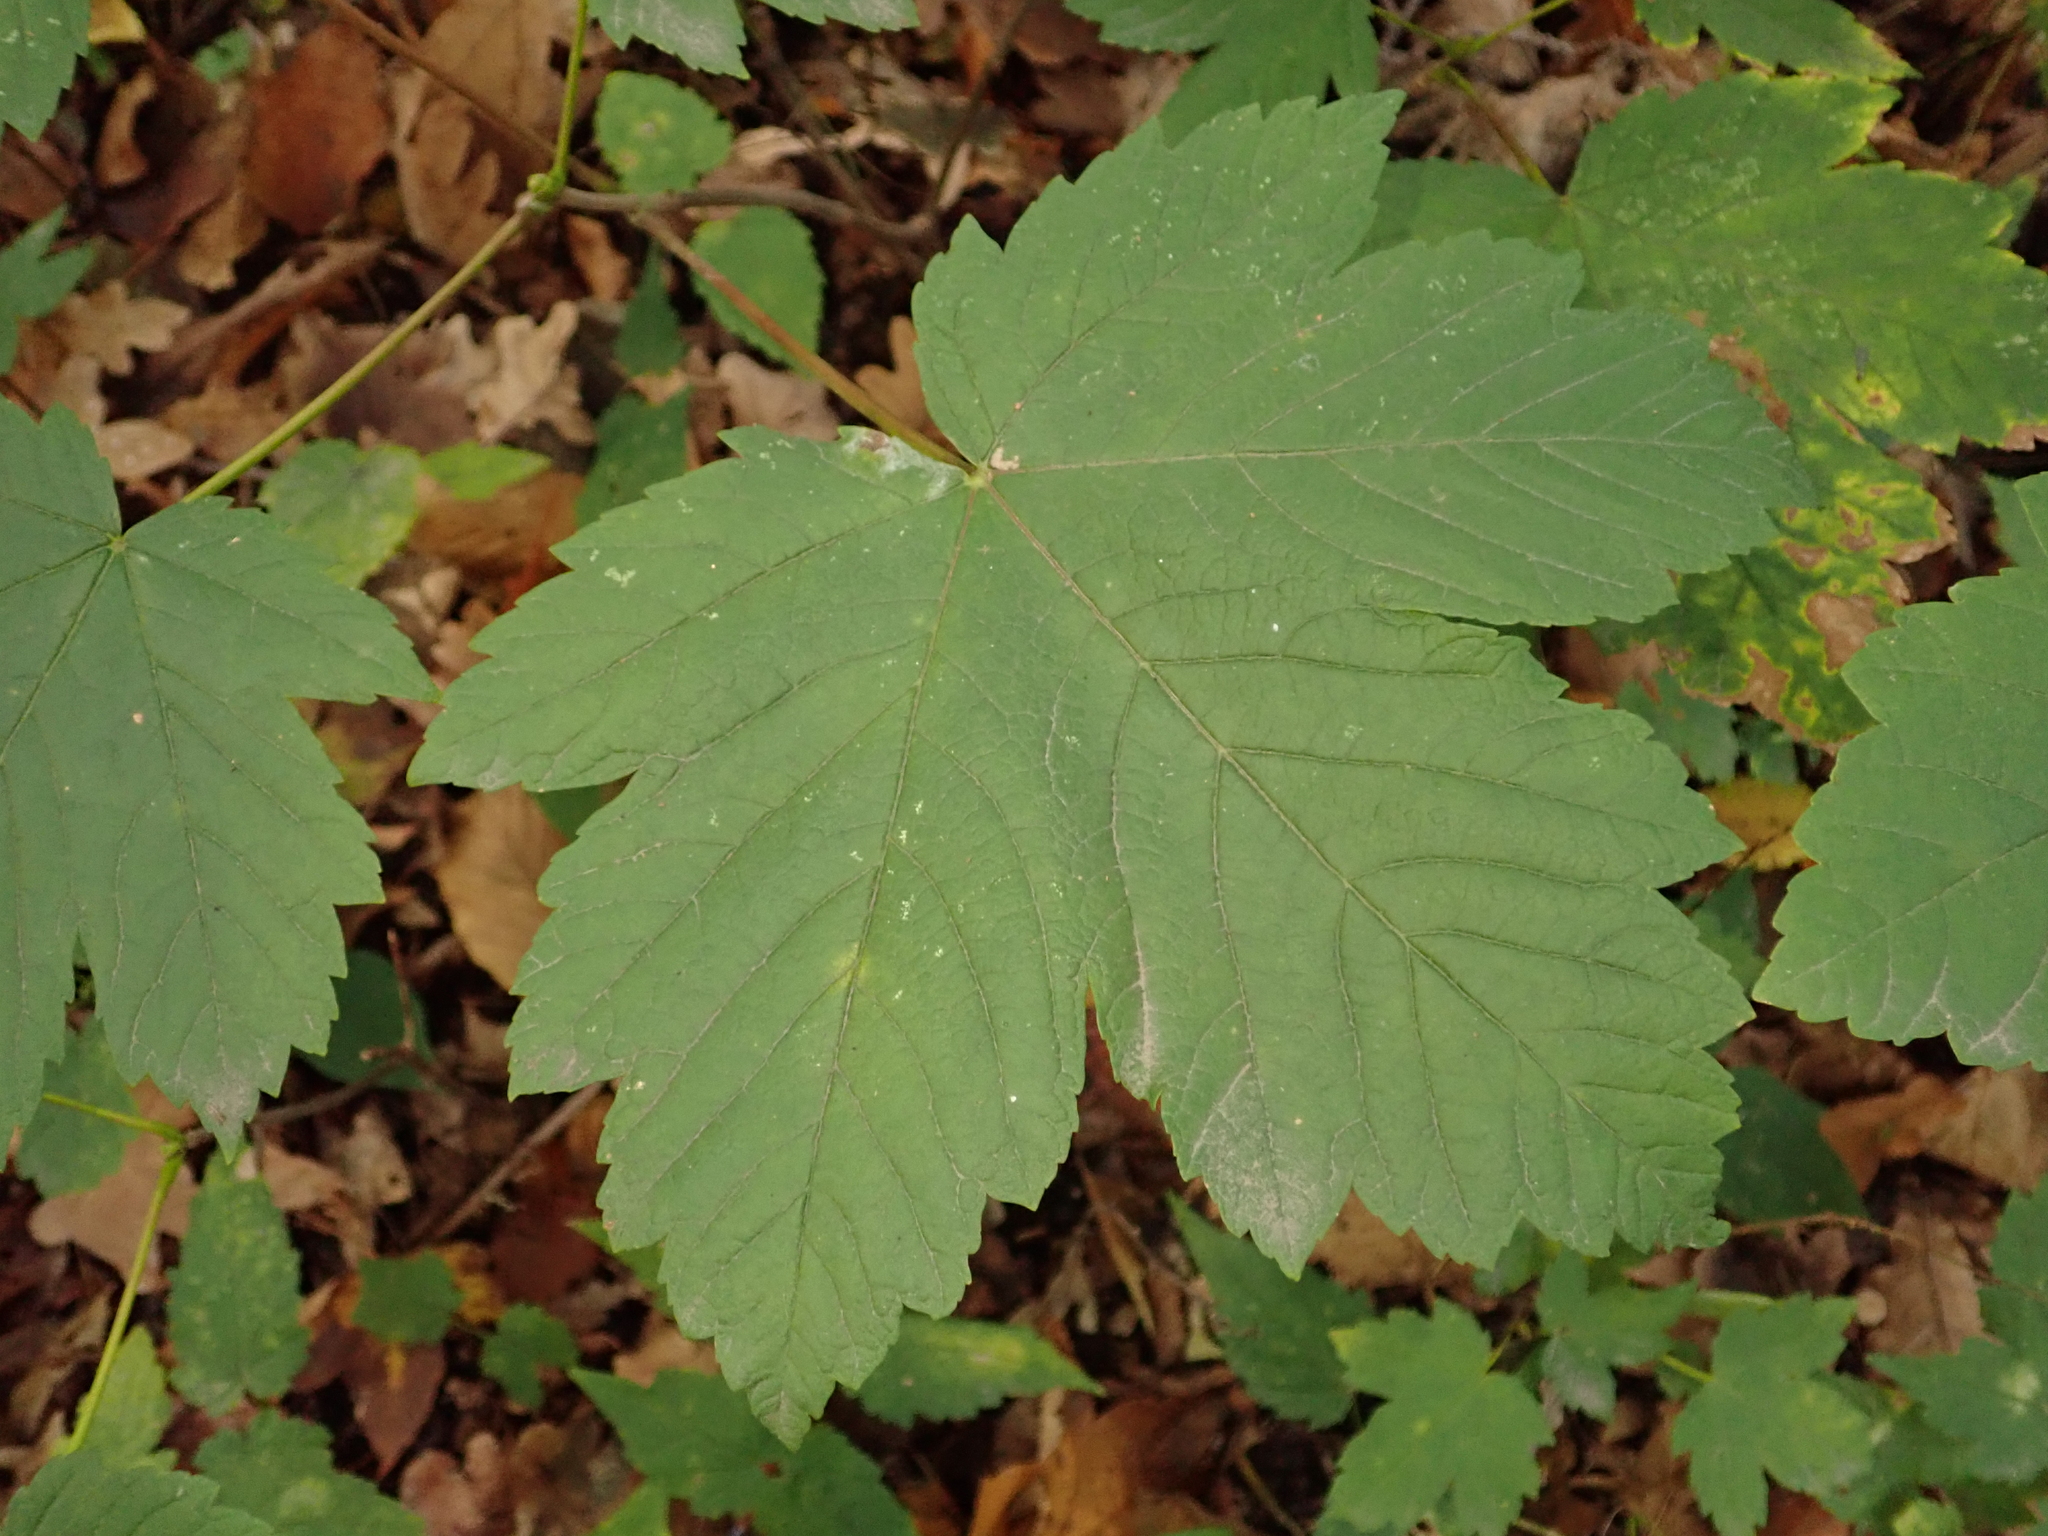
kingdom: Plantae
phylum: Tracheophyta
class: Magnoliopsida
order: Sapindales
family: Sapindaceae
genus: Acer
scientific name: Acer pseudoplatanus
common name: Sycamore
